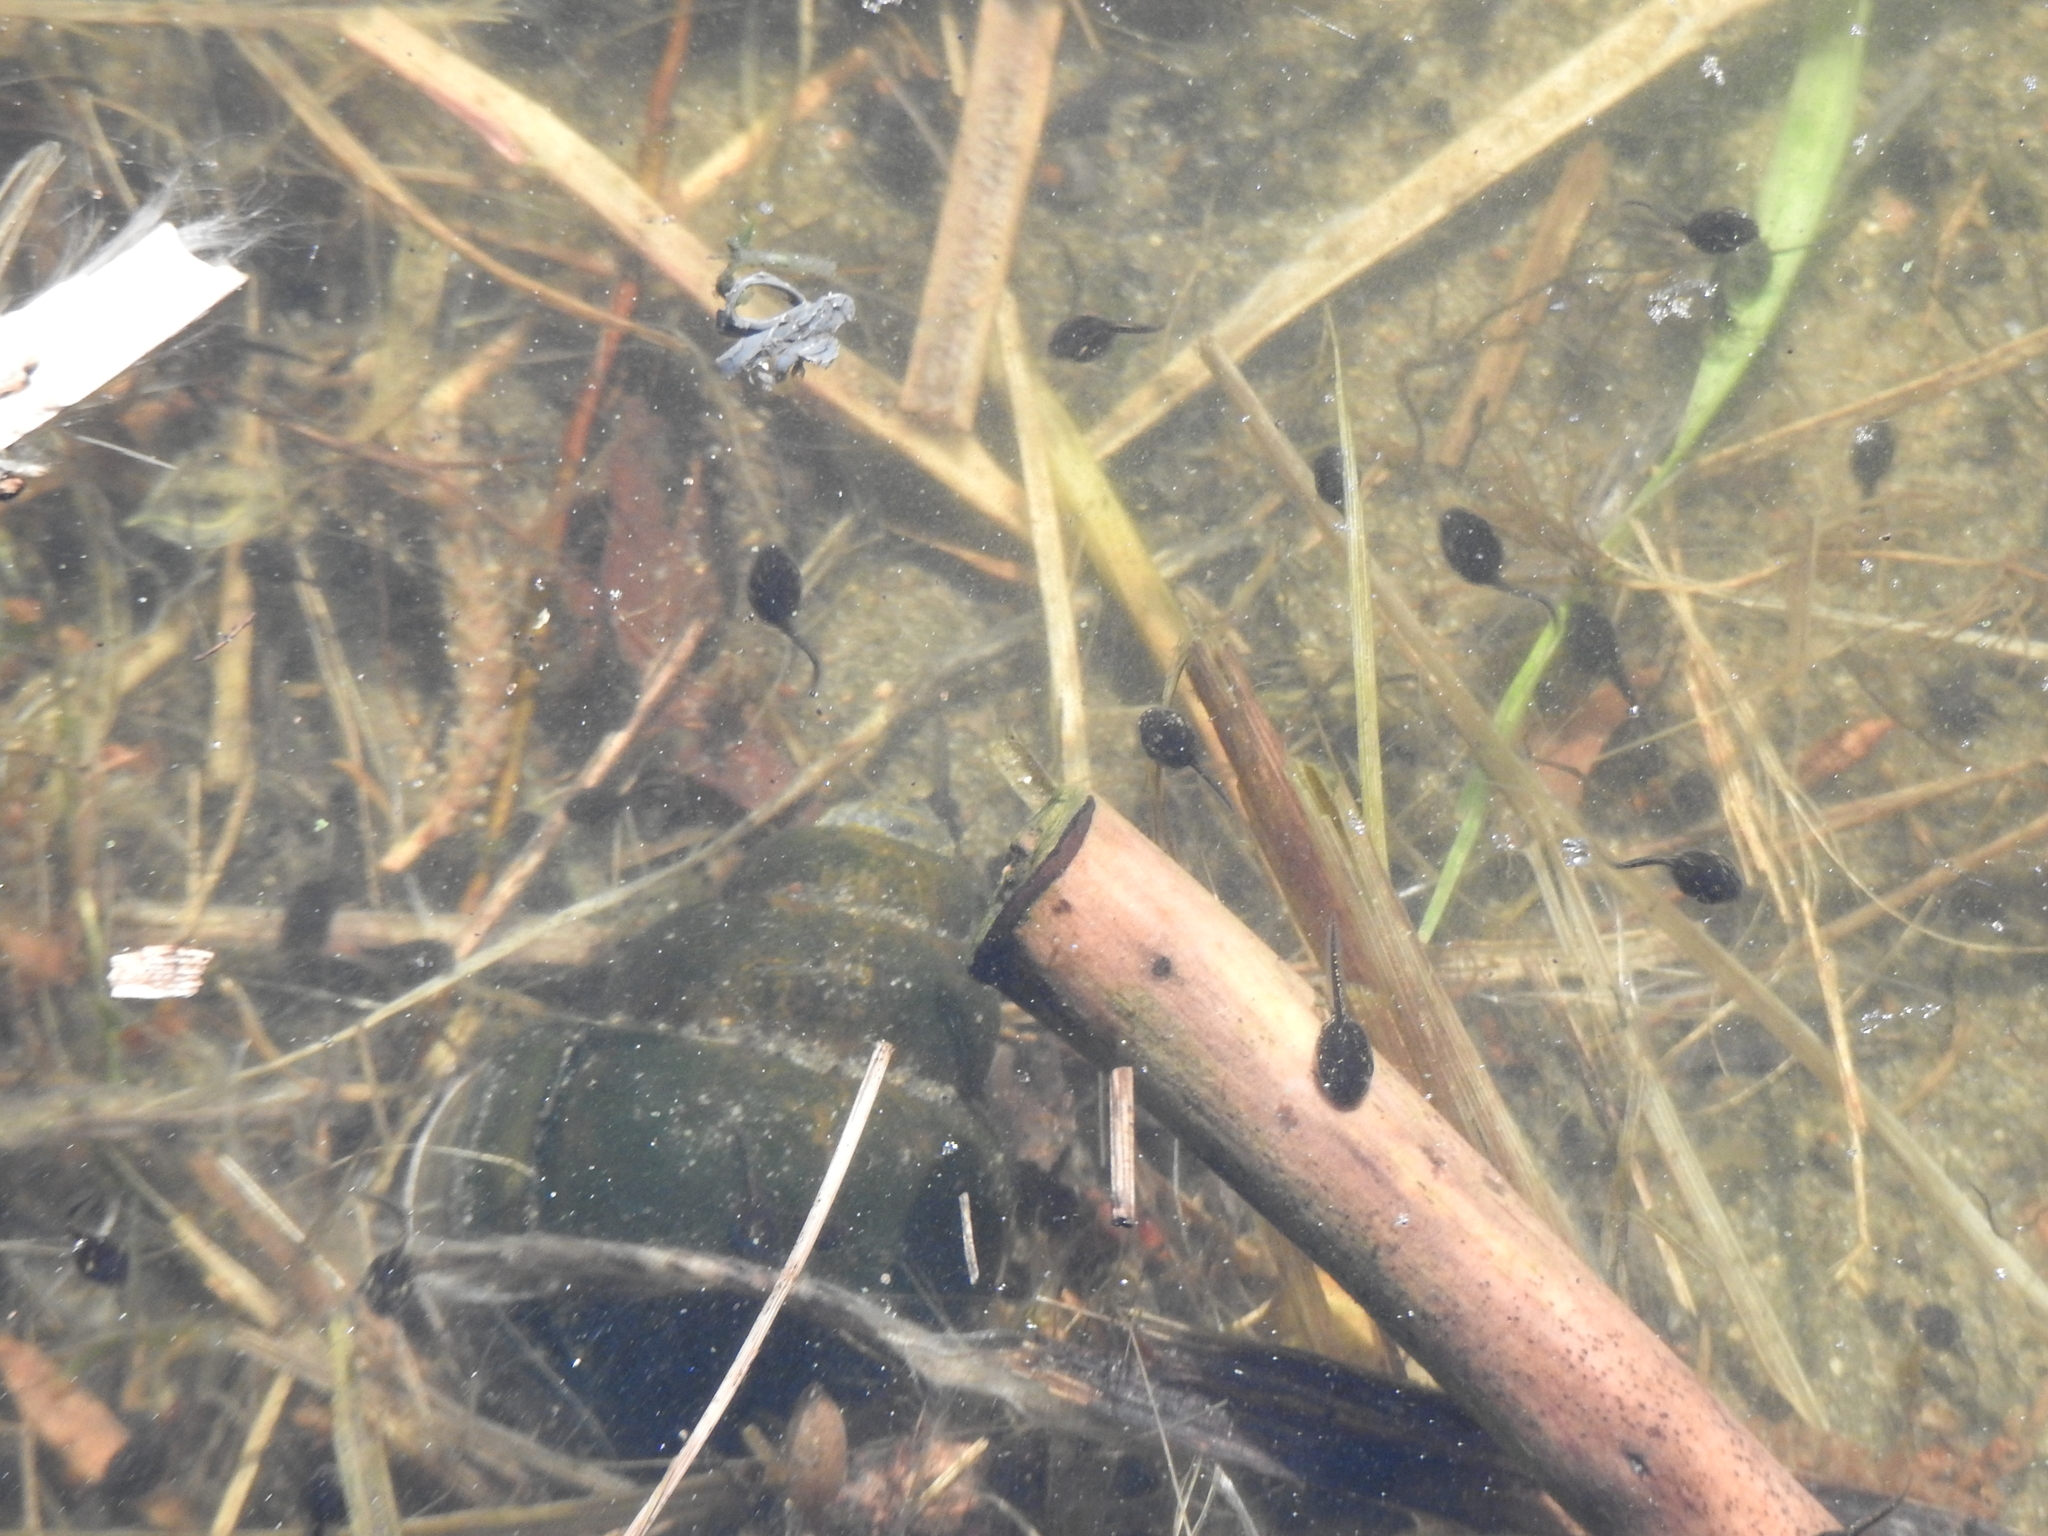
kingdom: Animalia
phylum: Chordata
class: Amphibia
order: Anura
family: Bufonidae
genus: Anaxyrus
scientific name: Anaxyrus americanus
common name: American toad
